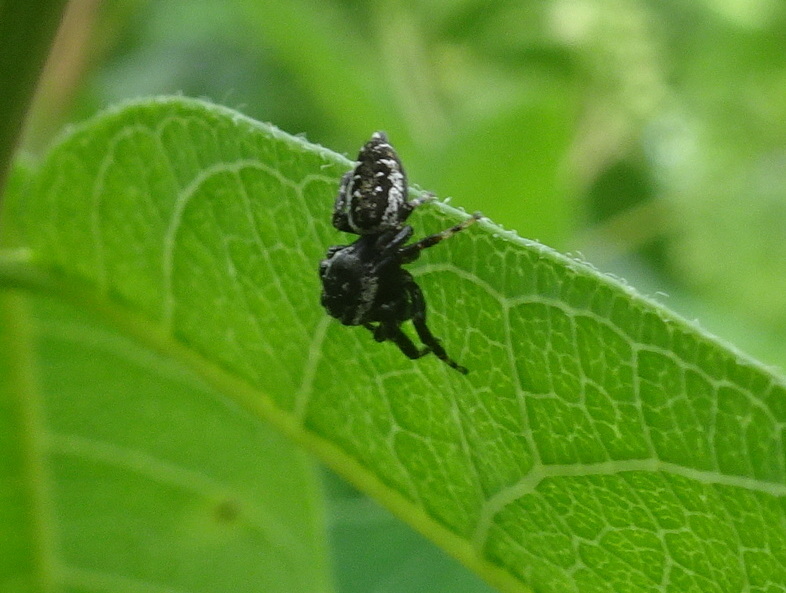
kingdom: Animalia
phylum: Arthropoda
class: Arachnida
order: Araneae
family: Salticidae
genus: Pelegrina
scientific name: Pelegrina galathea
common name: Jumping spiders
